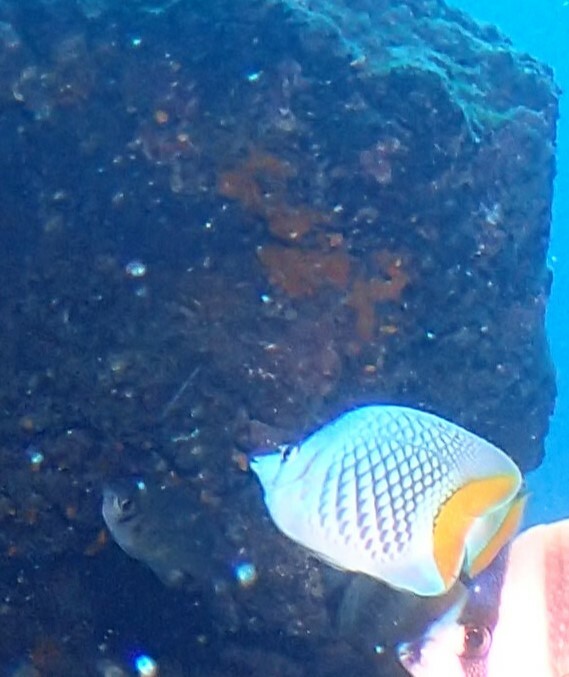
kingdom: Animalia
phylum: Chordata
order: Perciformes
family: Chaetodontidae
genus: Chaetodon
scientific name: Chaetodon xanthurus
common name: Philippine chevron butterflyfish
